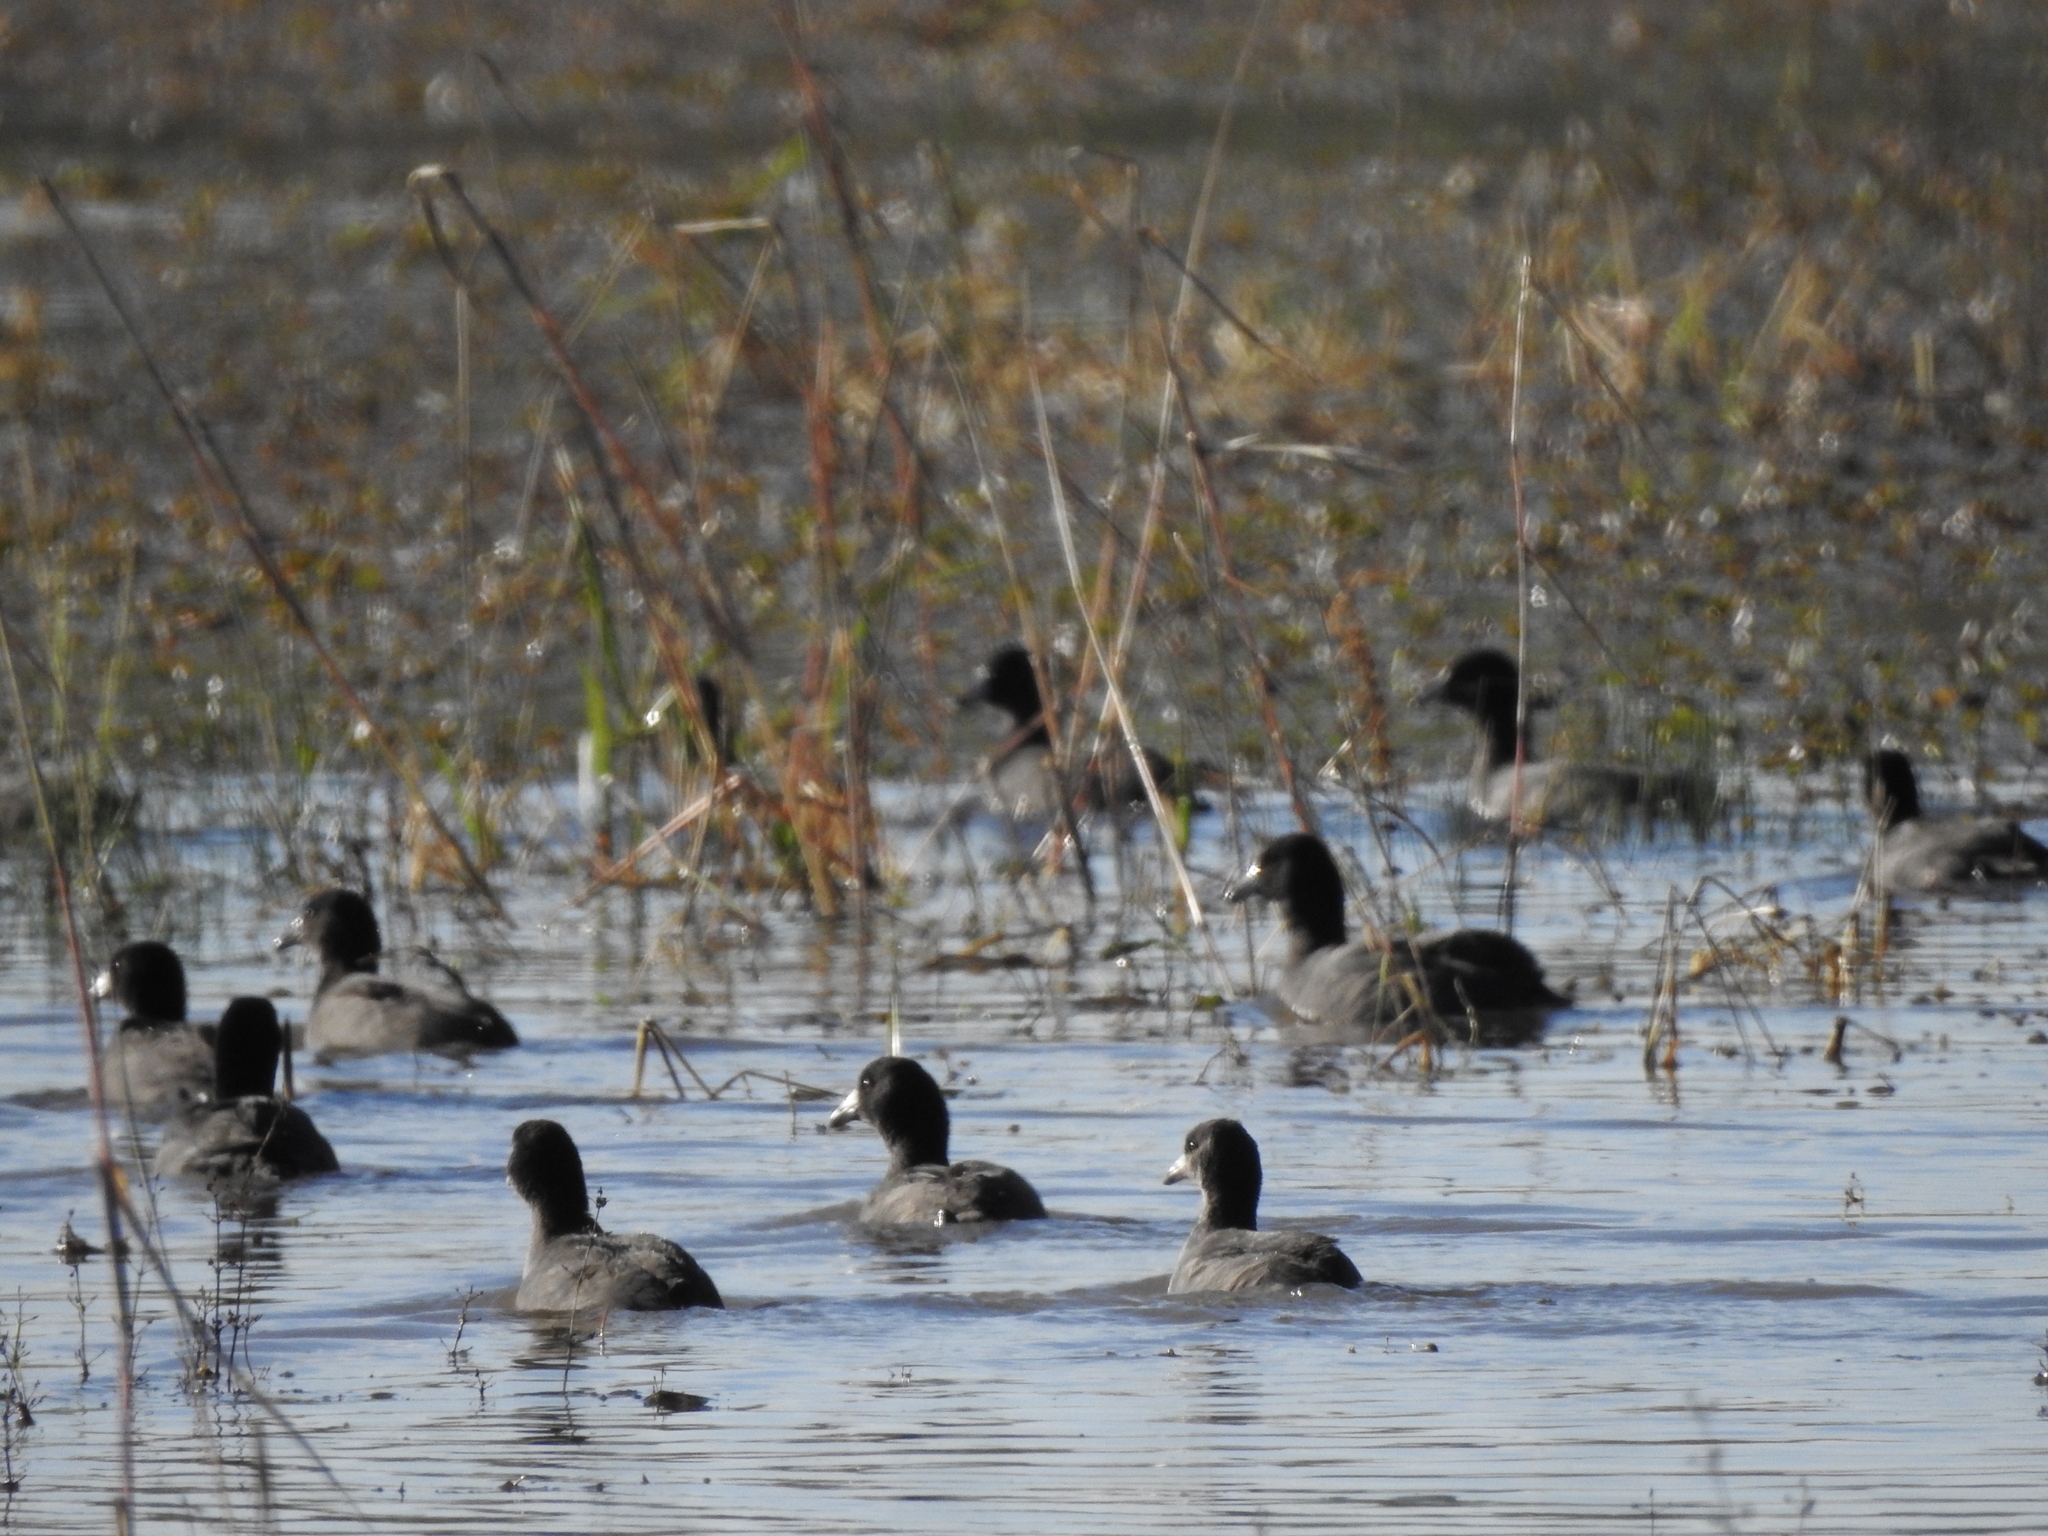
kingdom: Animalia
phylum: Chordata
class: Aves
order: Gruiformes
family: Rallidae
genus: Fulica
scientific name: Fulica americana
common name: American coot
